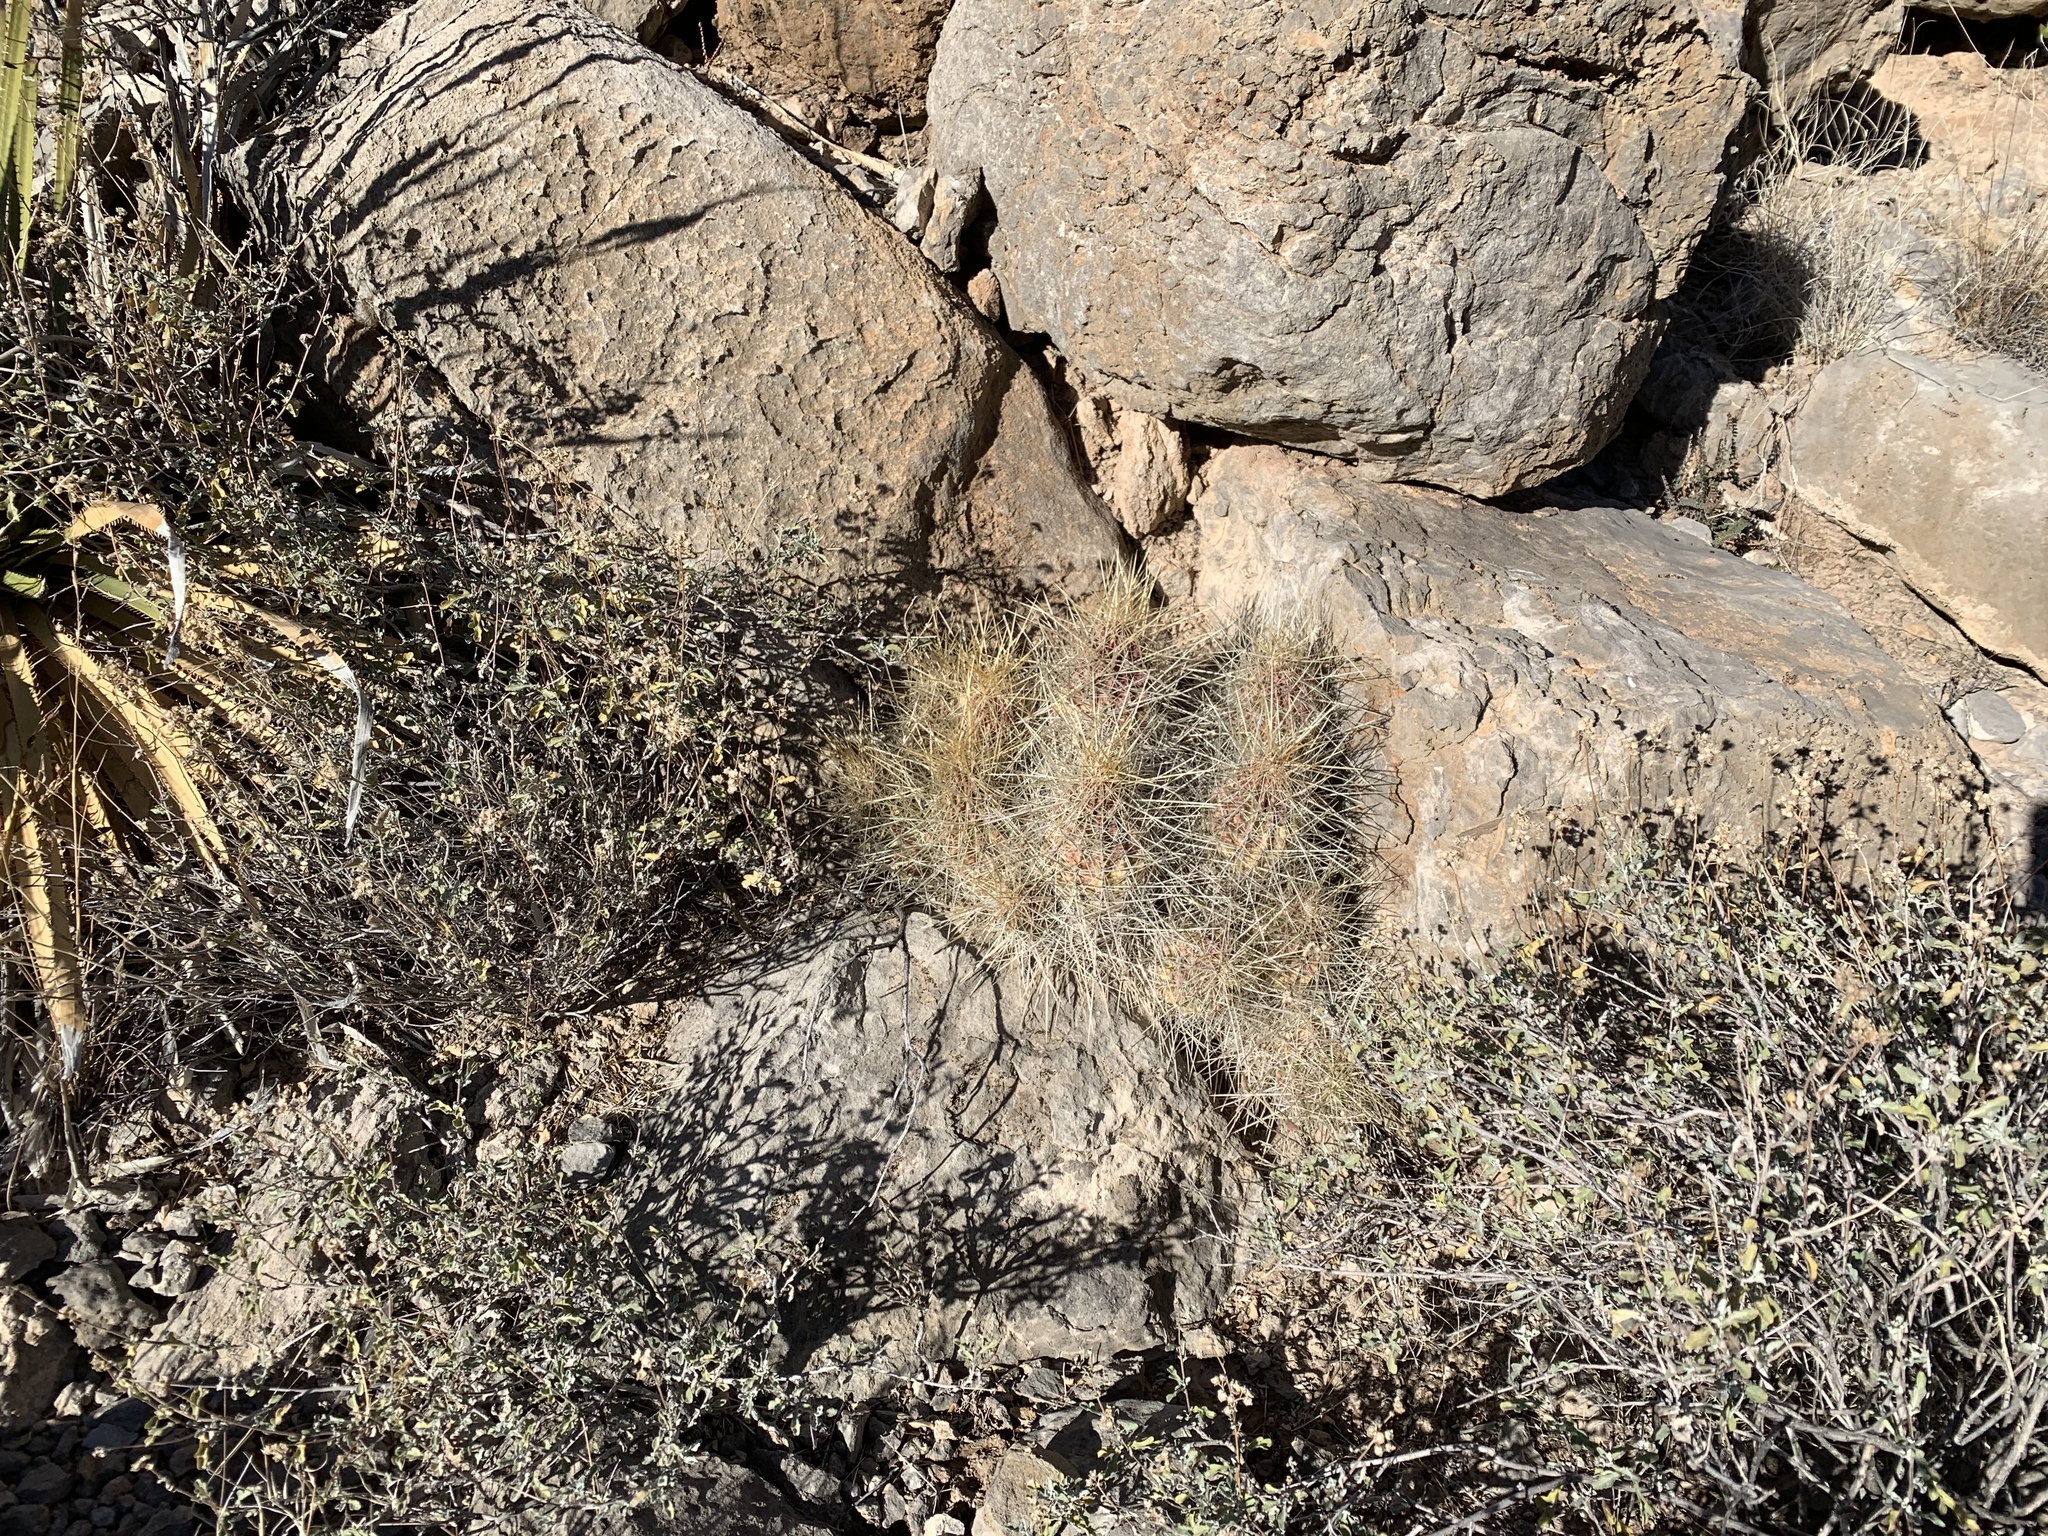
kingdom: Plantae
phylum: Tracheophyta
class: Magnoliopsida
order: Caryophyllales
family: Cactaceae
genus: Echinocereus
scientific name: Echinocereus stramineus
